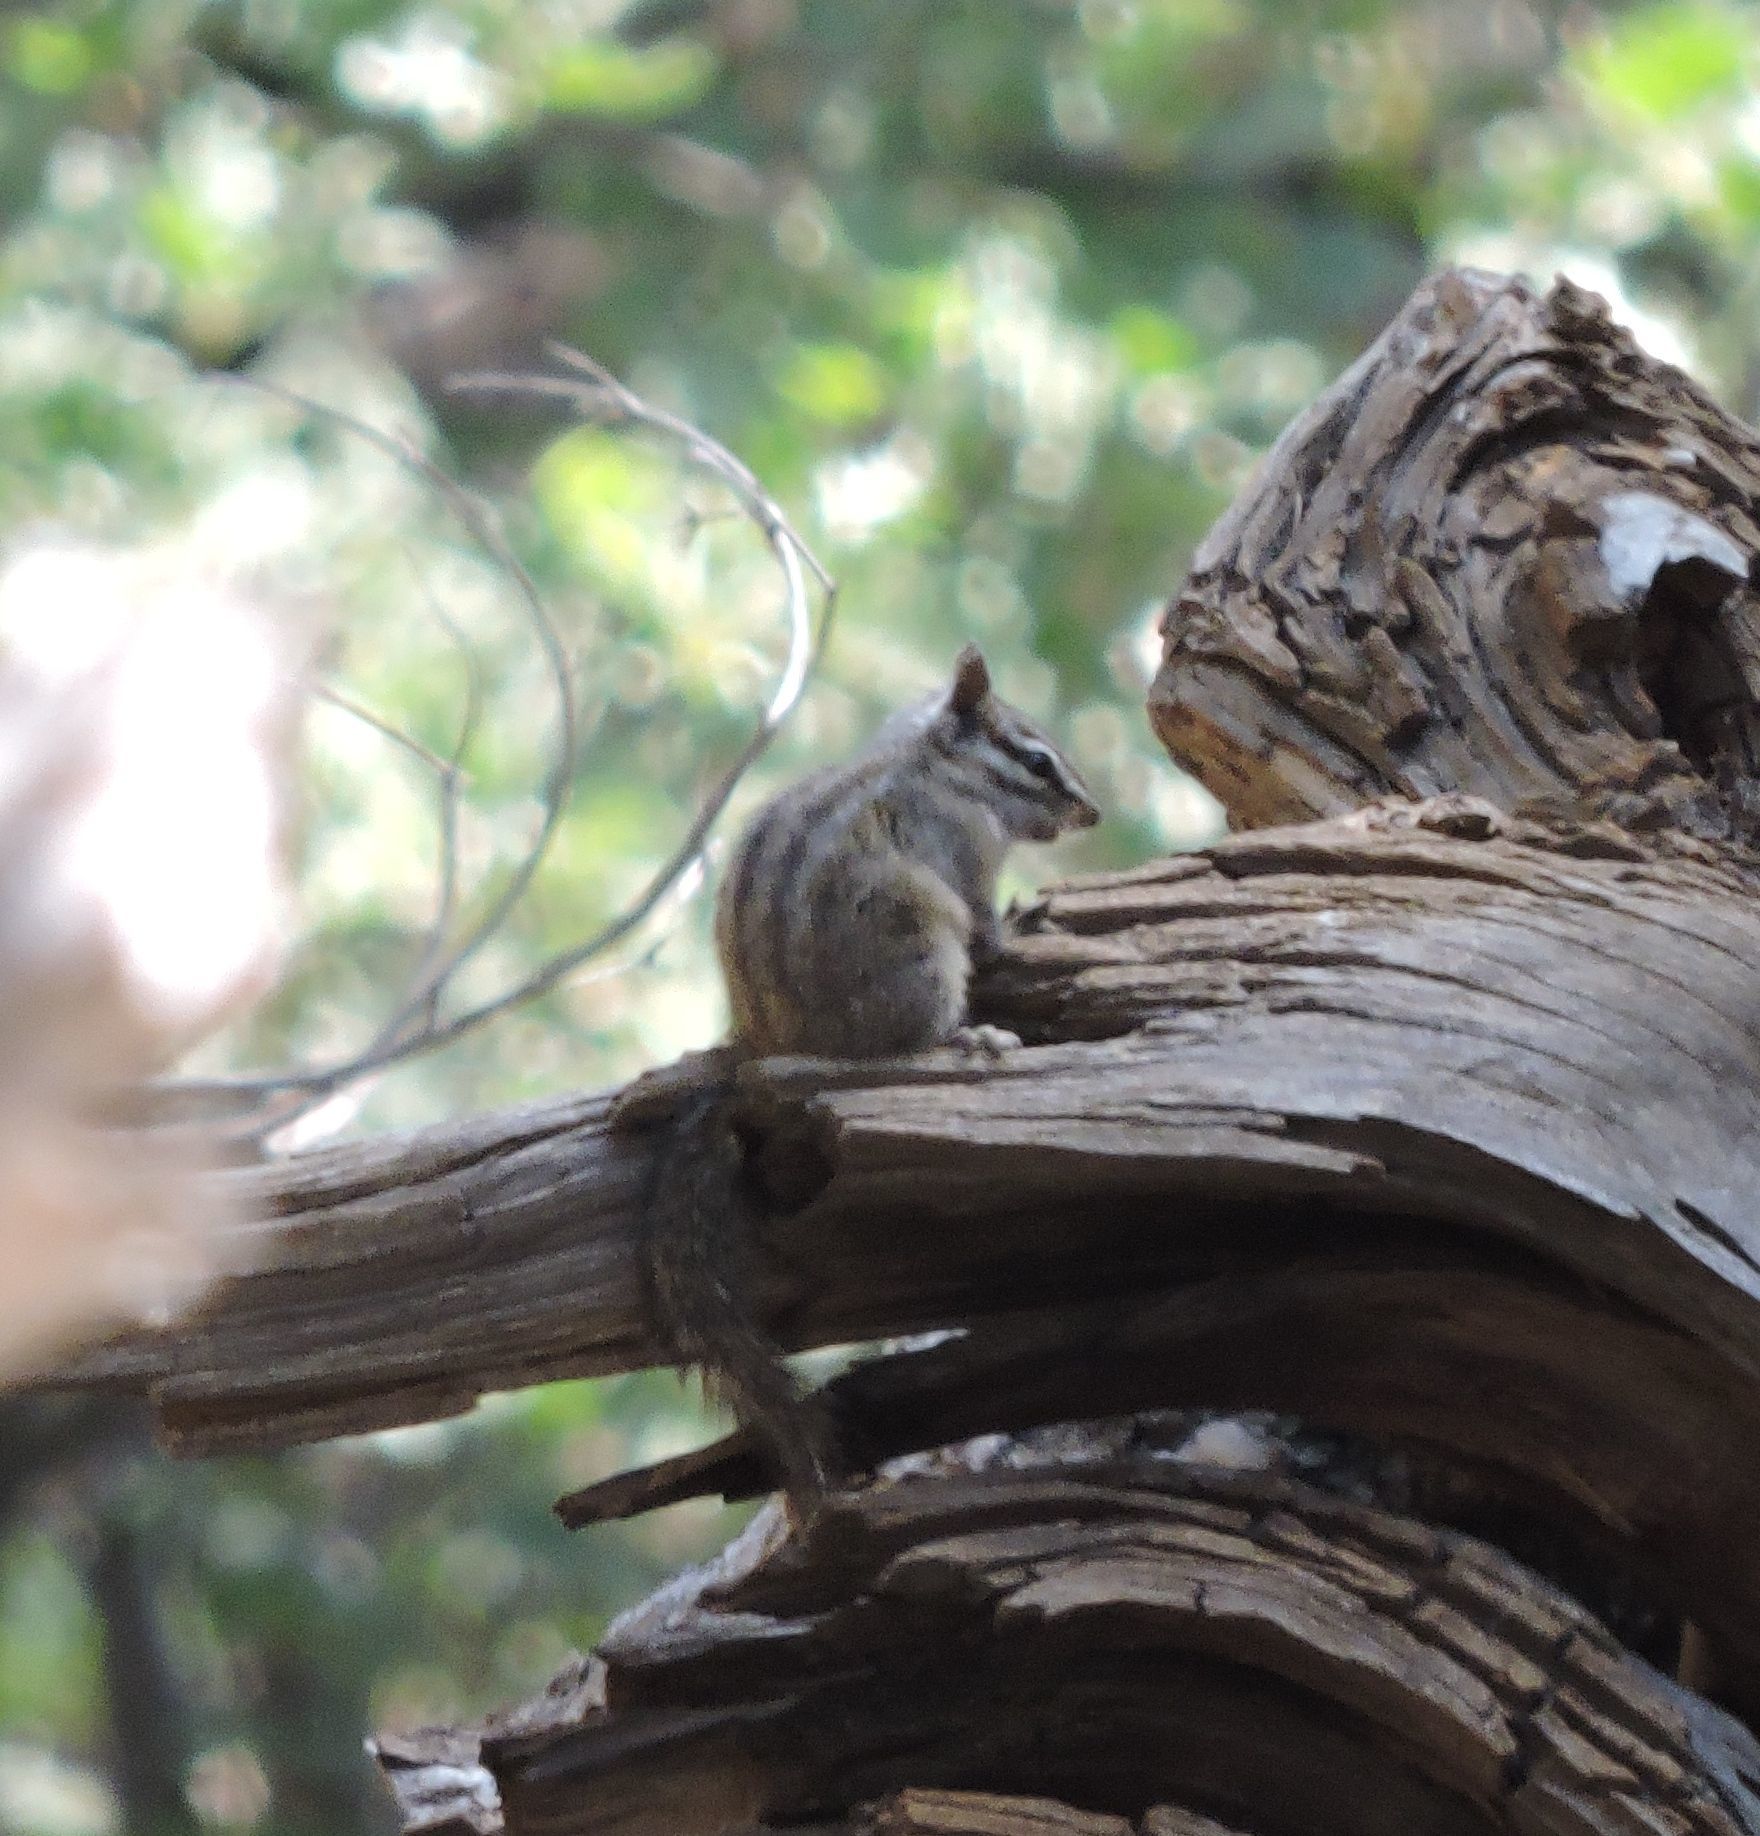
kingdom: Animalia
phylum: Chordata
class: Mammalia
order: Rodentia
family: Sciuridae
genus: Tamias
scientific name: Tamias merriami
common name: Merriam's chipmunk
